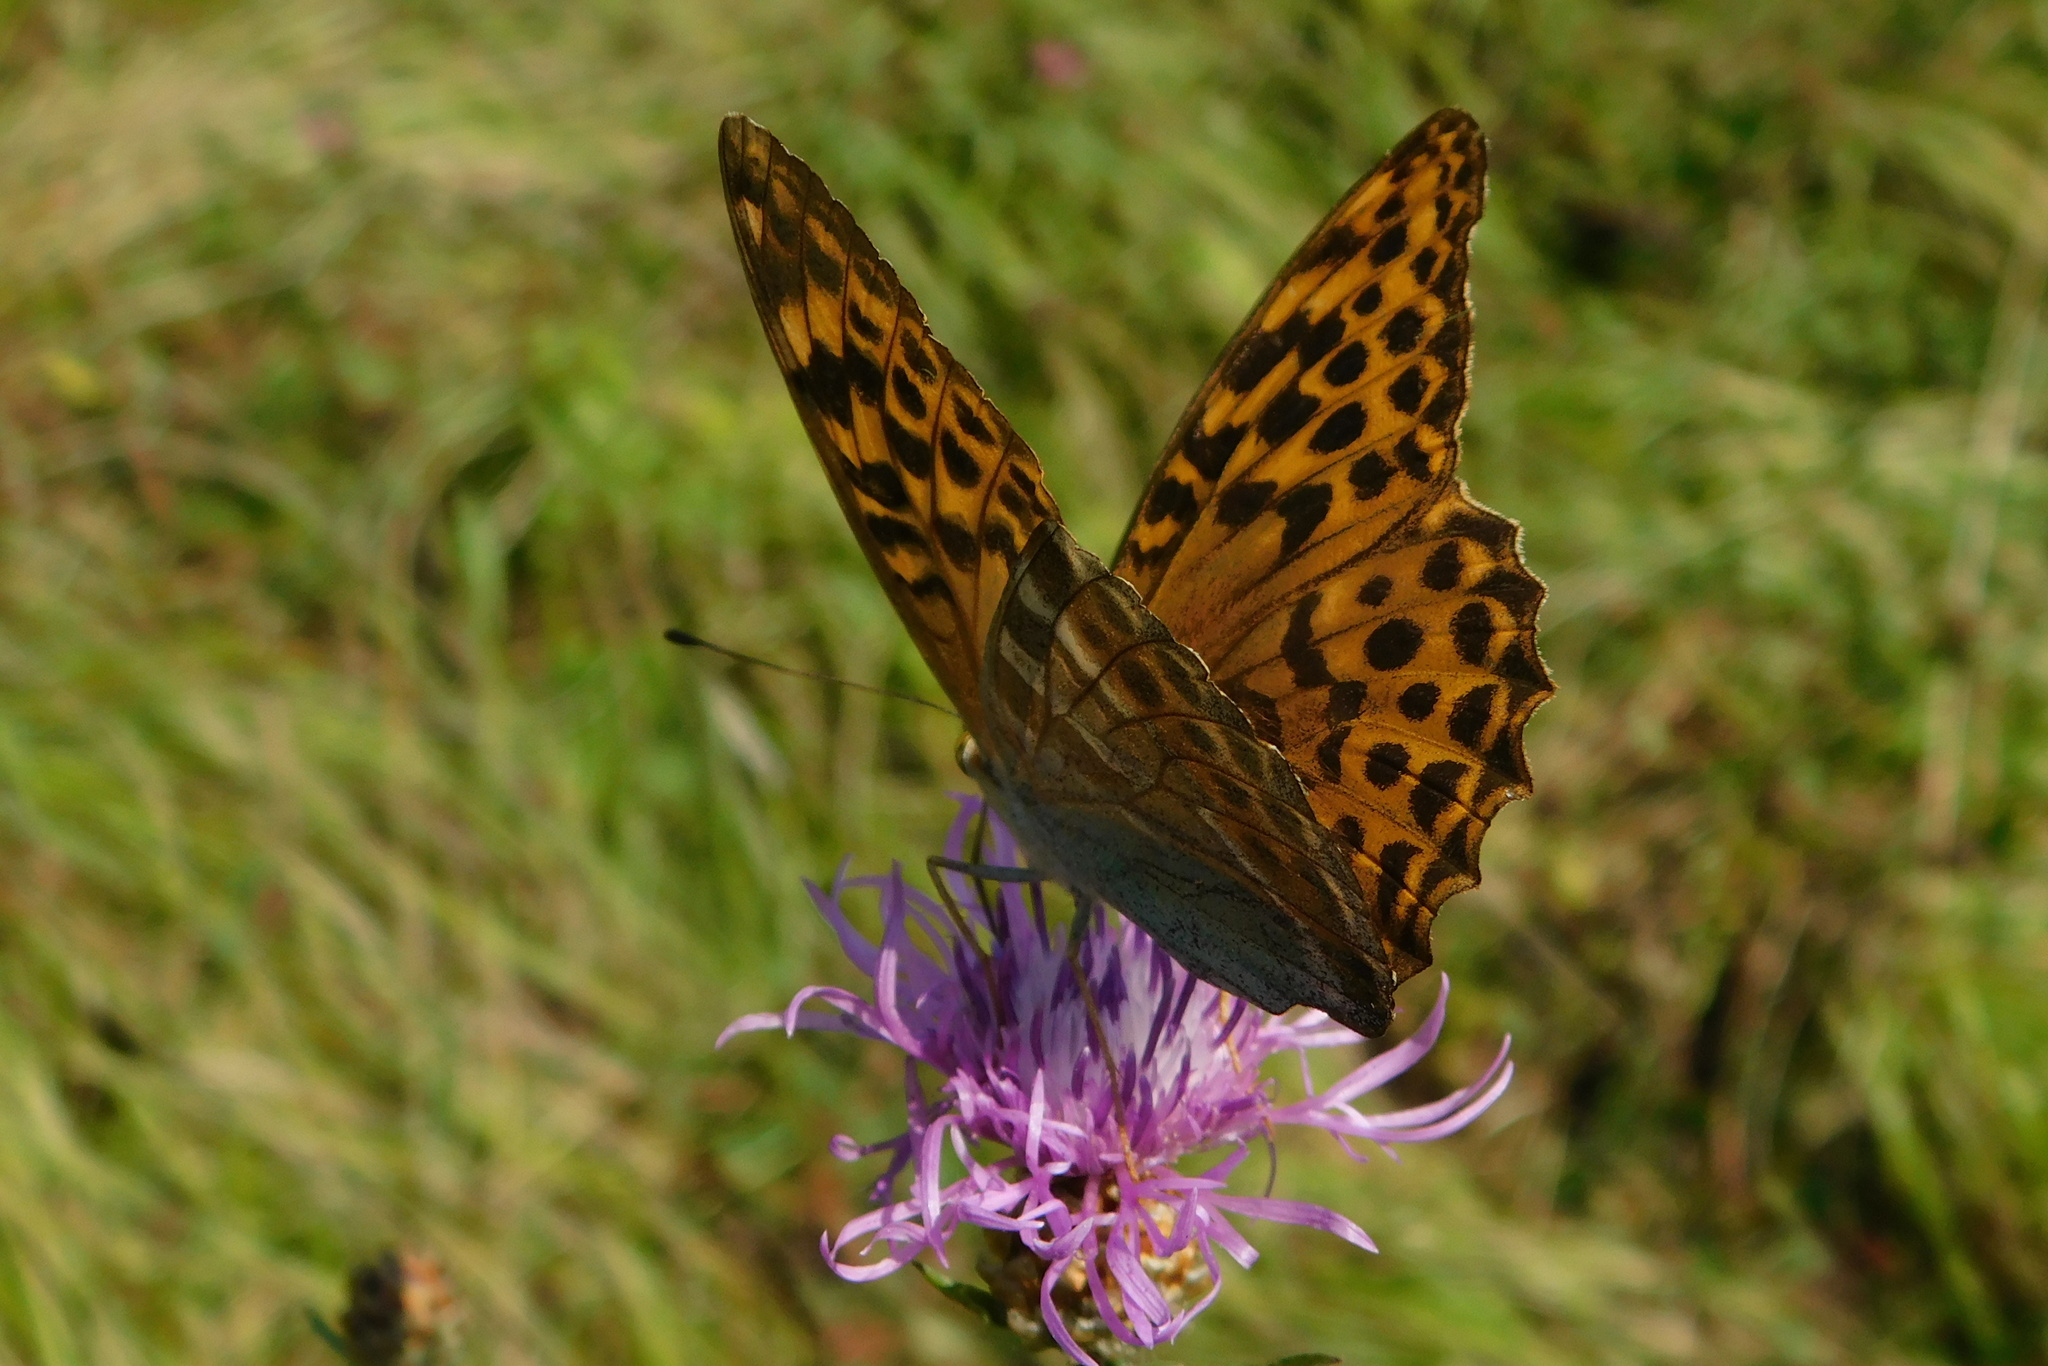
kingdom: Animalia
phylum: Arthropoda
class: Insecta
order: Lepidoptera
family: Nymphalidae
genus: Argynnis
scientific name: Argynnis paphia
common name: Silver-washed fritillary
